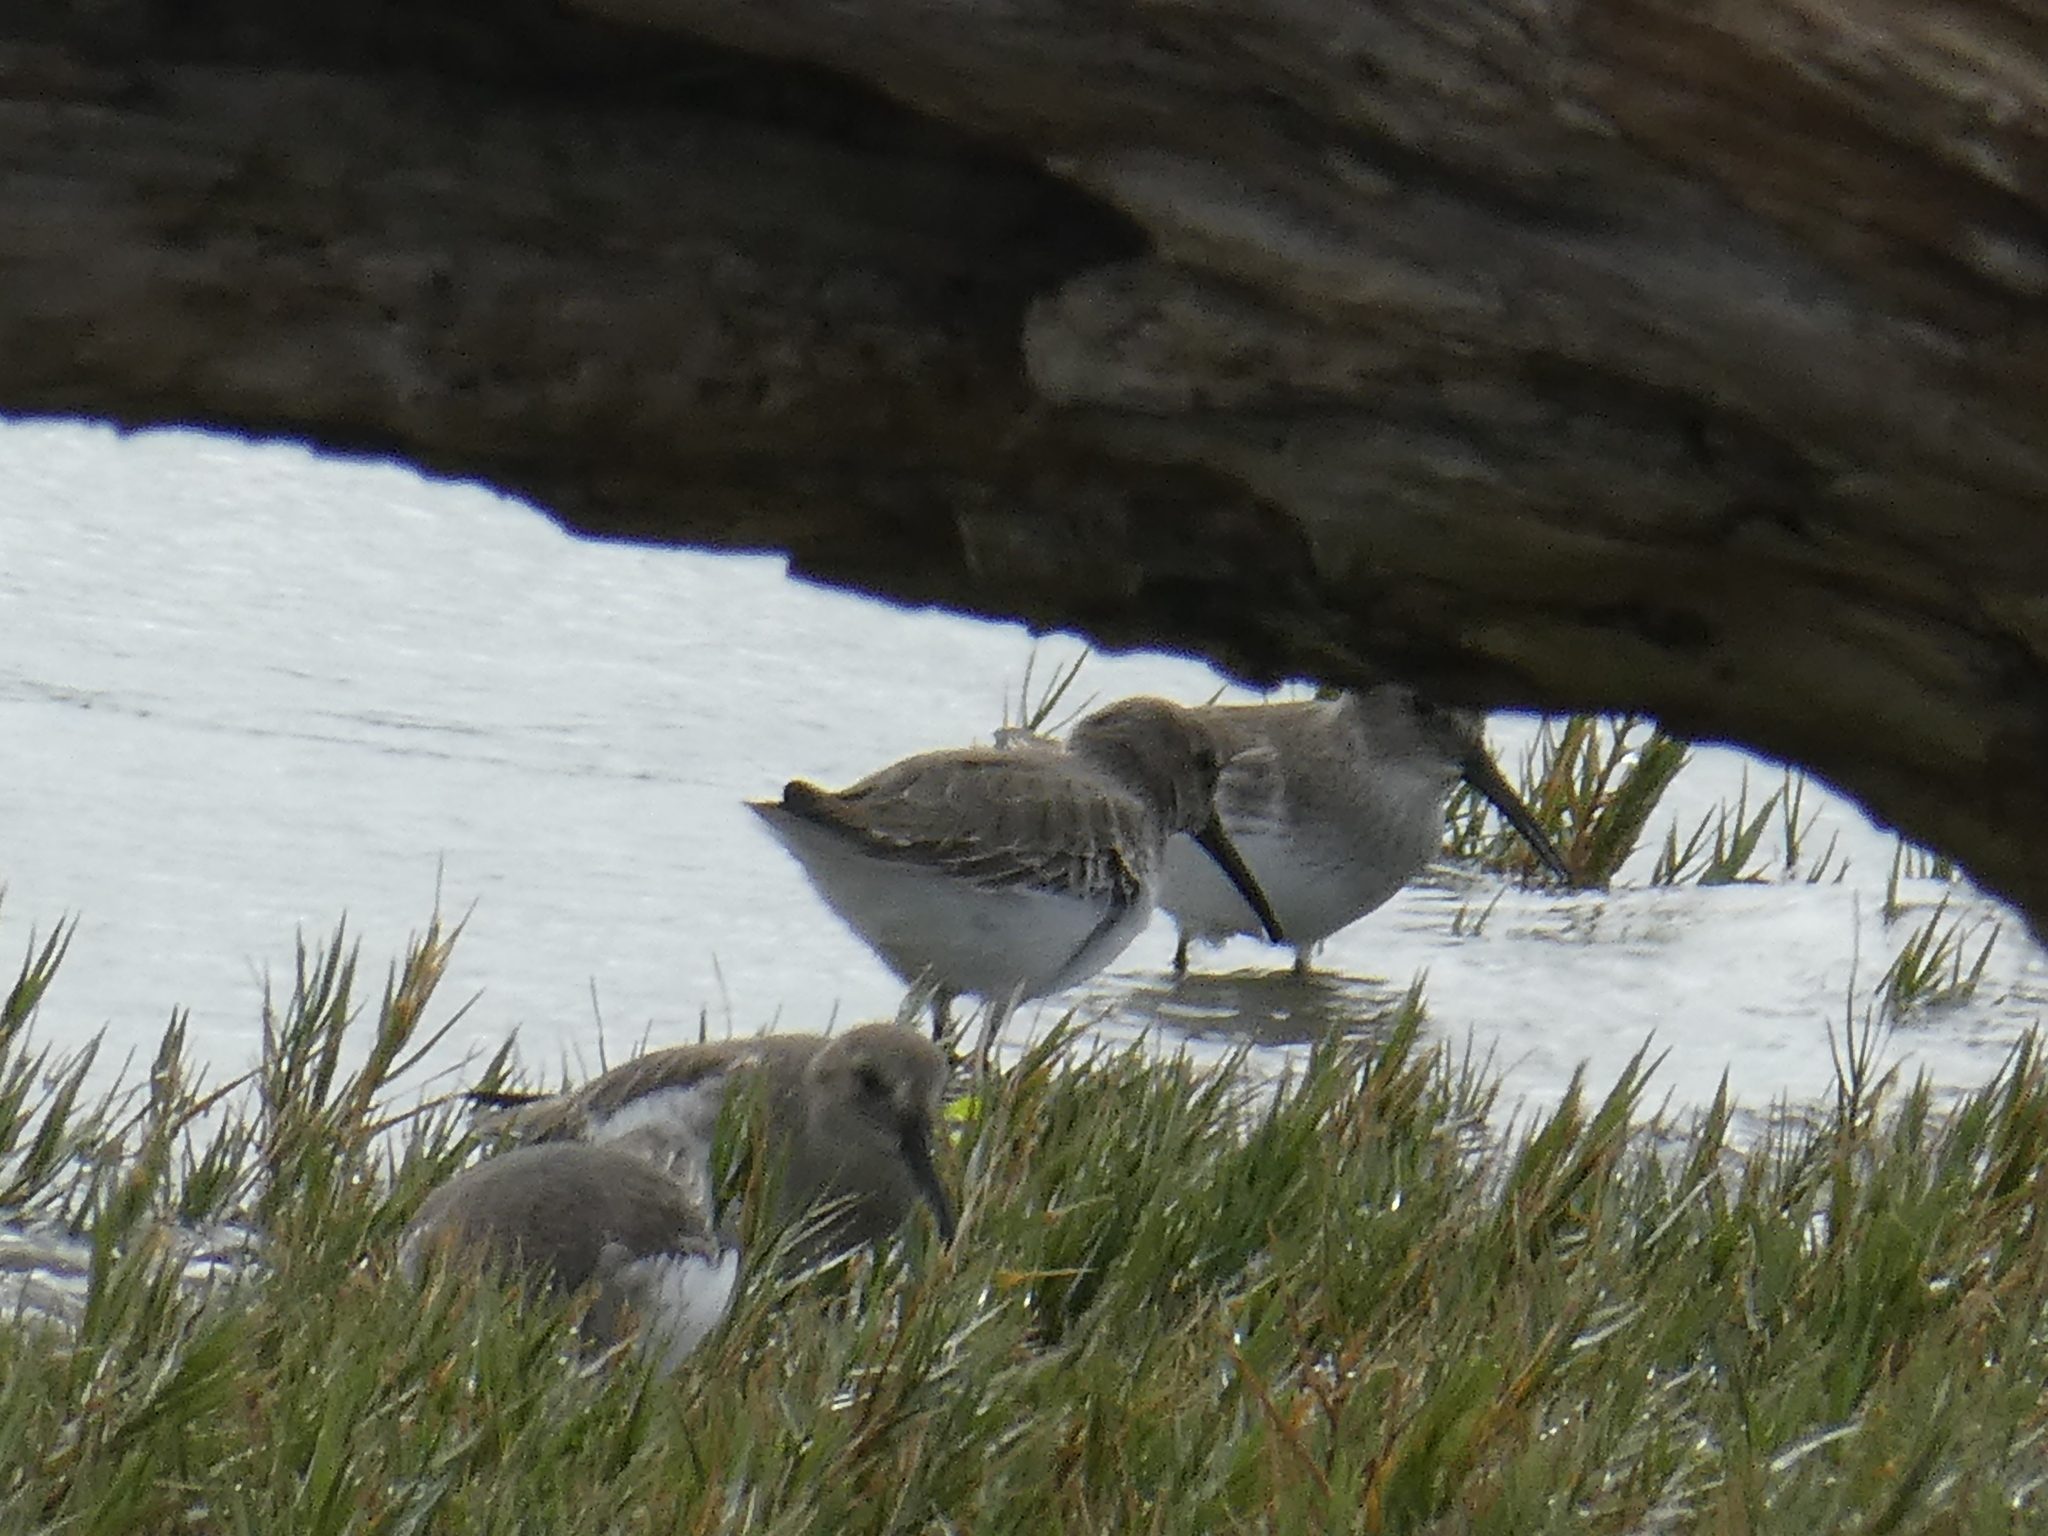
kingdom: Animalia
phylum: Chordata
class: Aves
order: Charadriiformes
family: Scolopacidae
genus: Calidris
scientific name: Calidris alpina
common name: Dunlin
